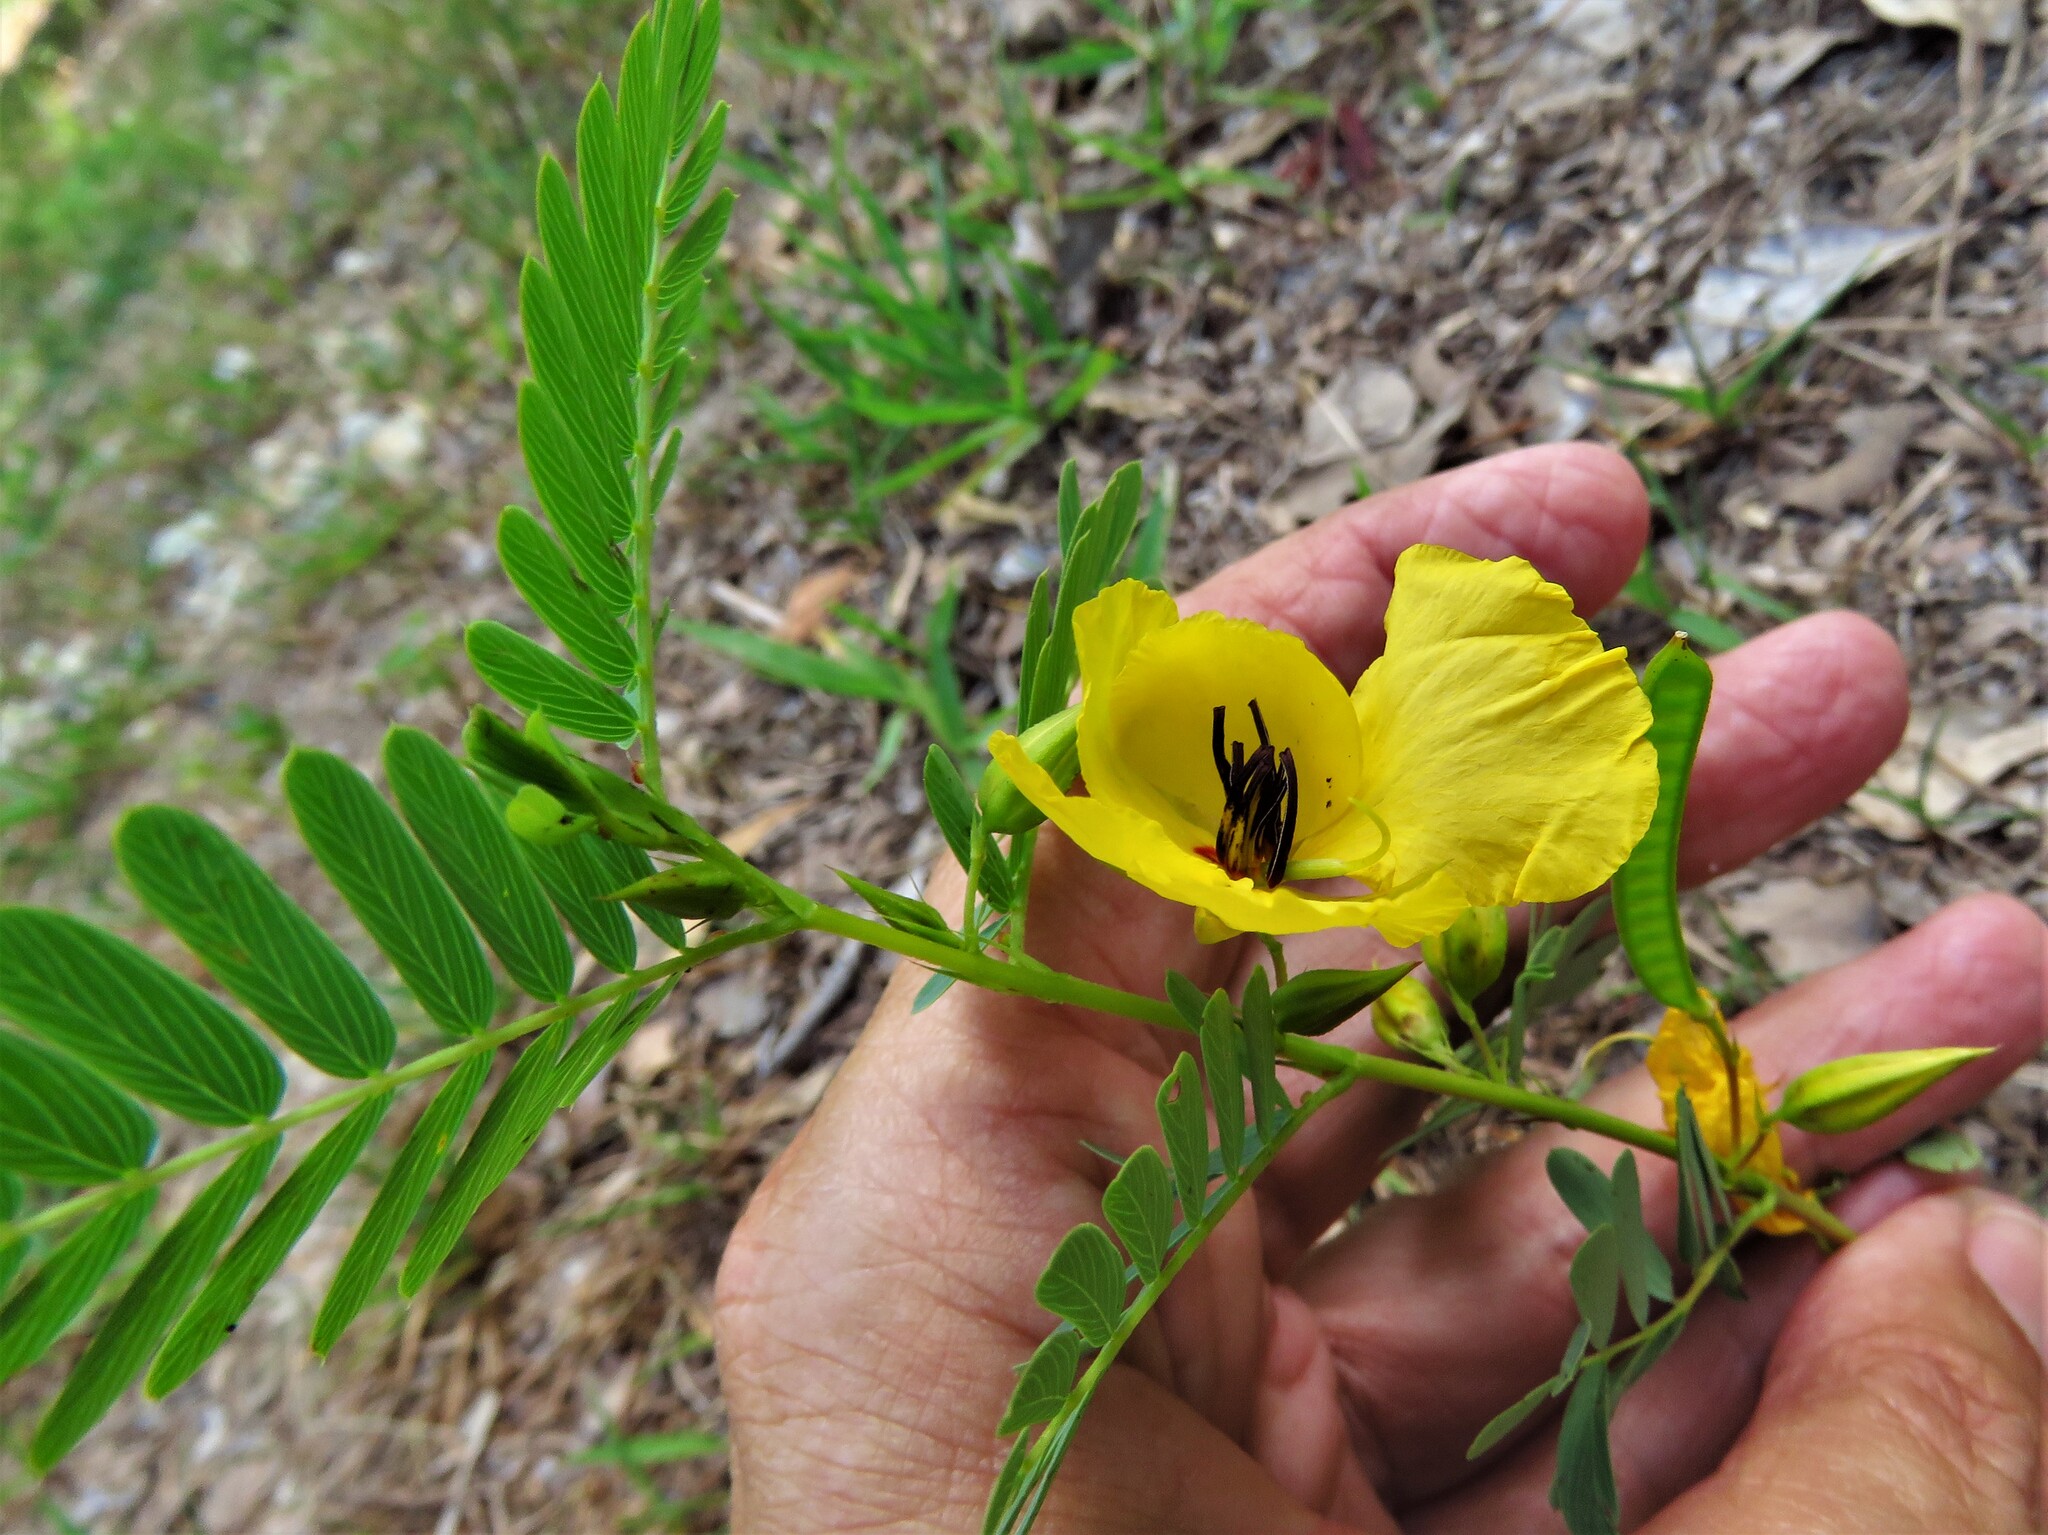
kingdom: Plantae
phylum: Tracheophyta
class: Magnoliopsida
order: Fabales
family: Fabaceae
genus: Chamaecrista
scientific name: Chamaecrista fasciculata
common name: Golden cassia
